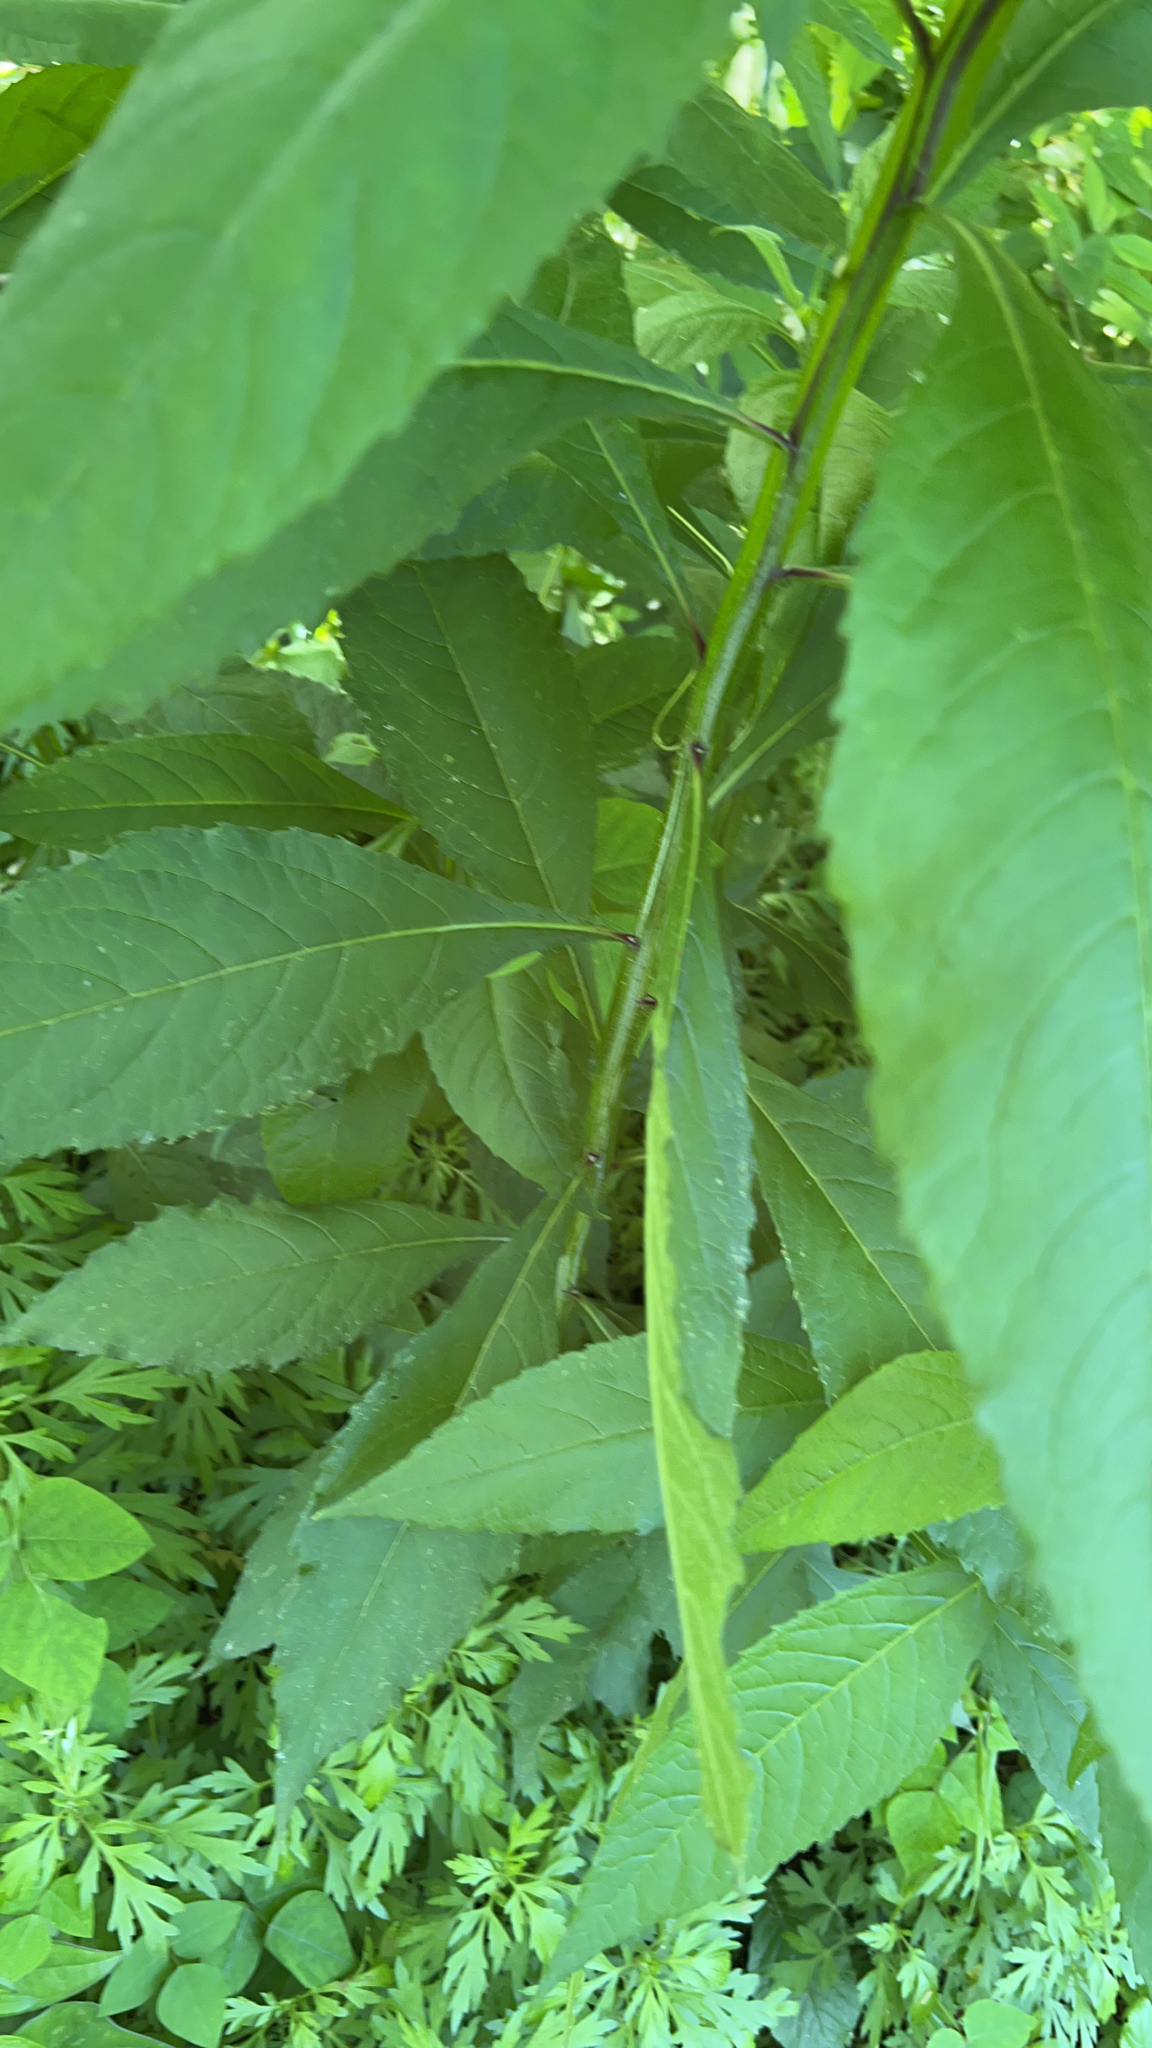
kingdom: Plantae
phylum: Tracheophyta
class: Magnoliopsida
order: Asterales
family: Asteraceae
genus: Verbesina
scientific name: Verbesina alternifolia
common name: Wingstem
